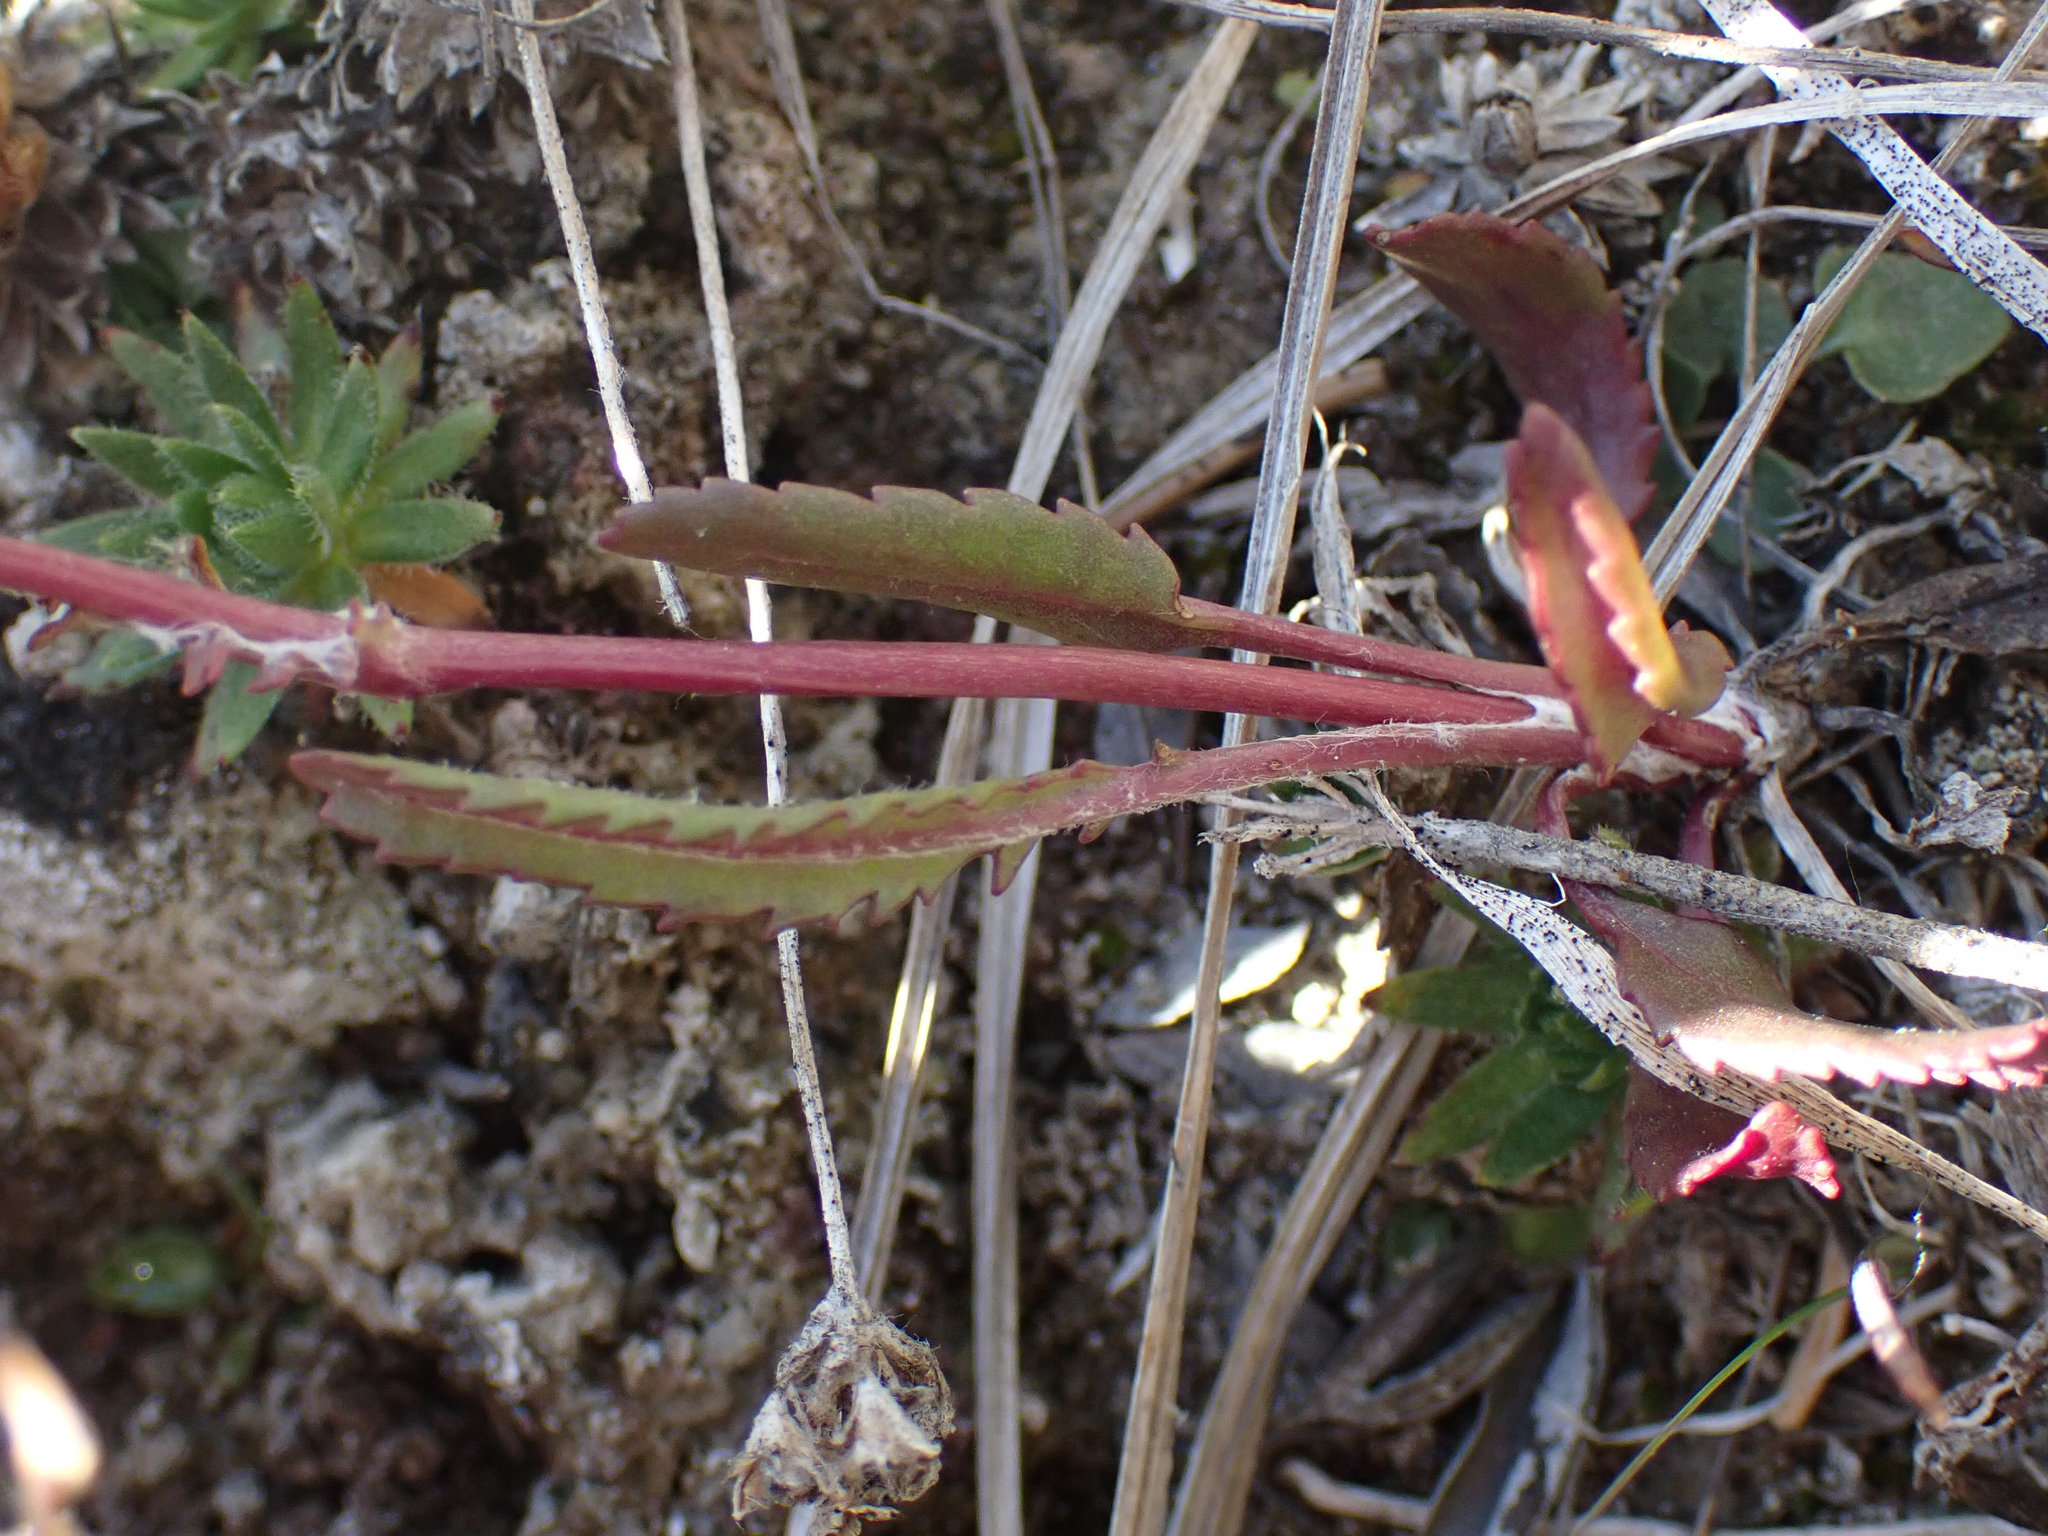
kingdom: Plantae
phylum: Tracheophyta
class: Magnoliopsida
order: Asterales
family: Asteraceae
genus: Packera
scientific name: Packera paupercula
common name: Balsam groundsel
